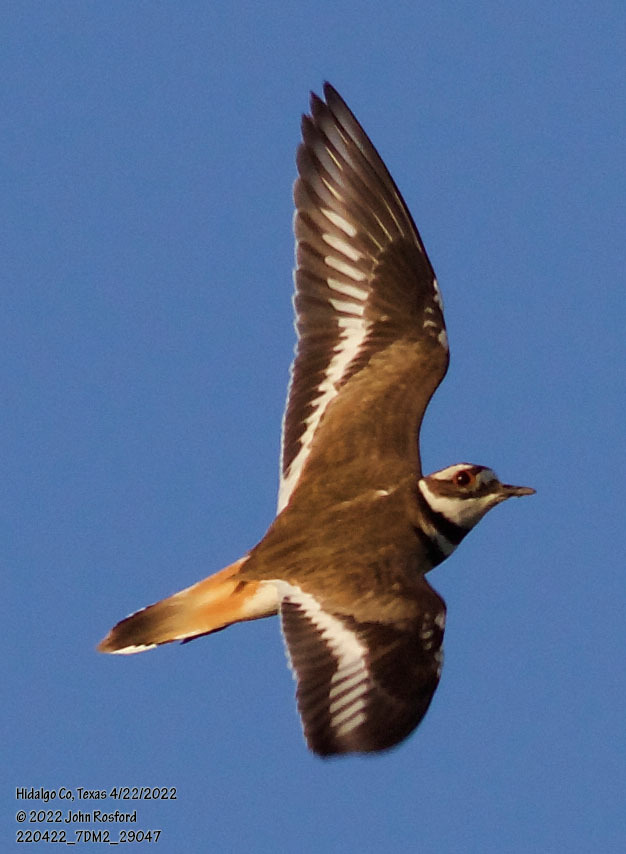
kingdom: Animalia
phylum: Chordata
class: Aves
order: Charadriiformes
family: Charadriidae
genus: Charadrius
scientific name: Charadrius vociferus
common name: Killdeer
